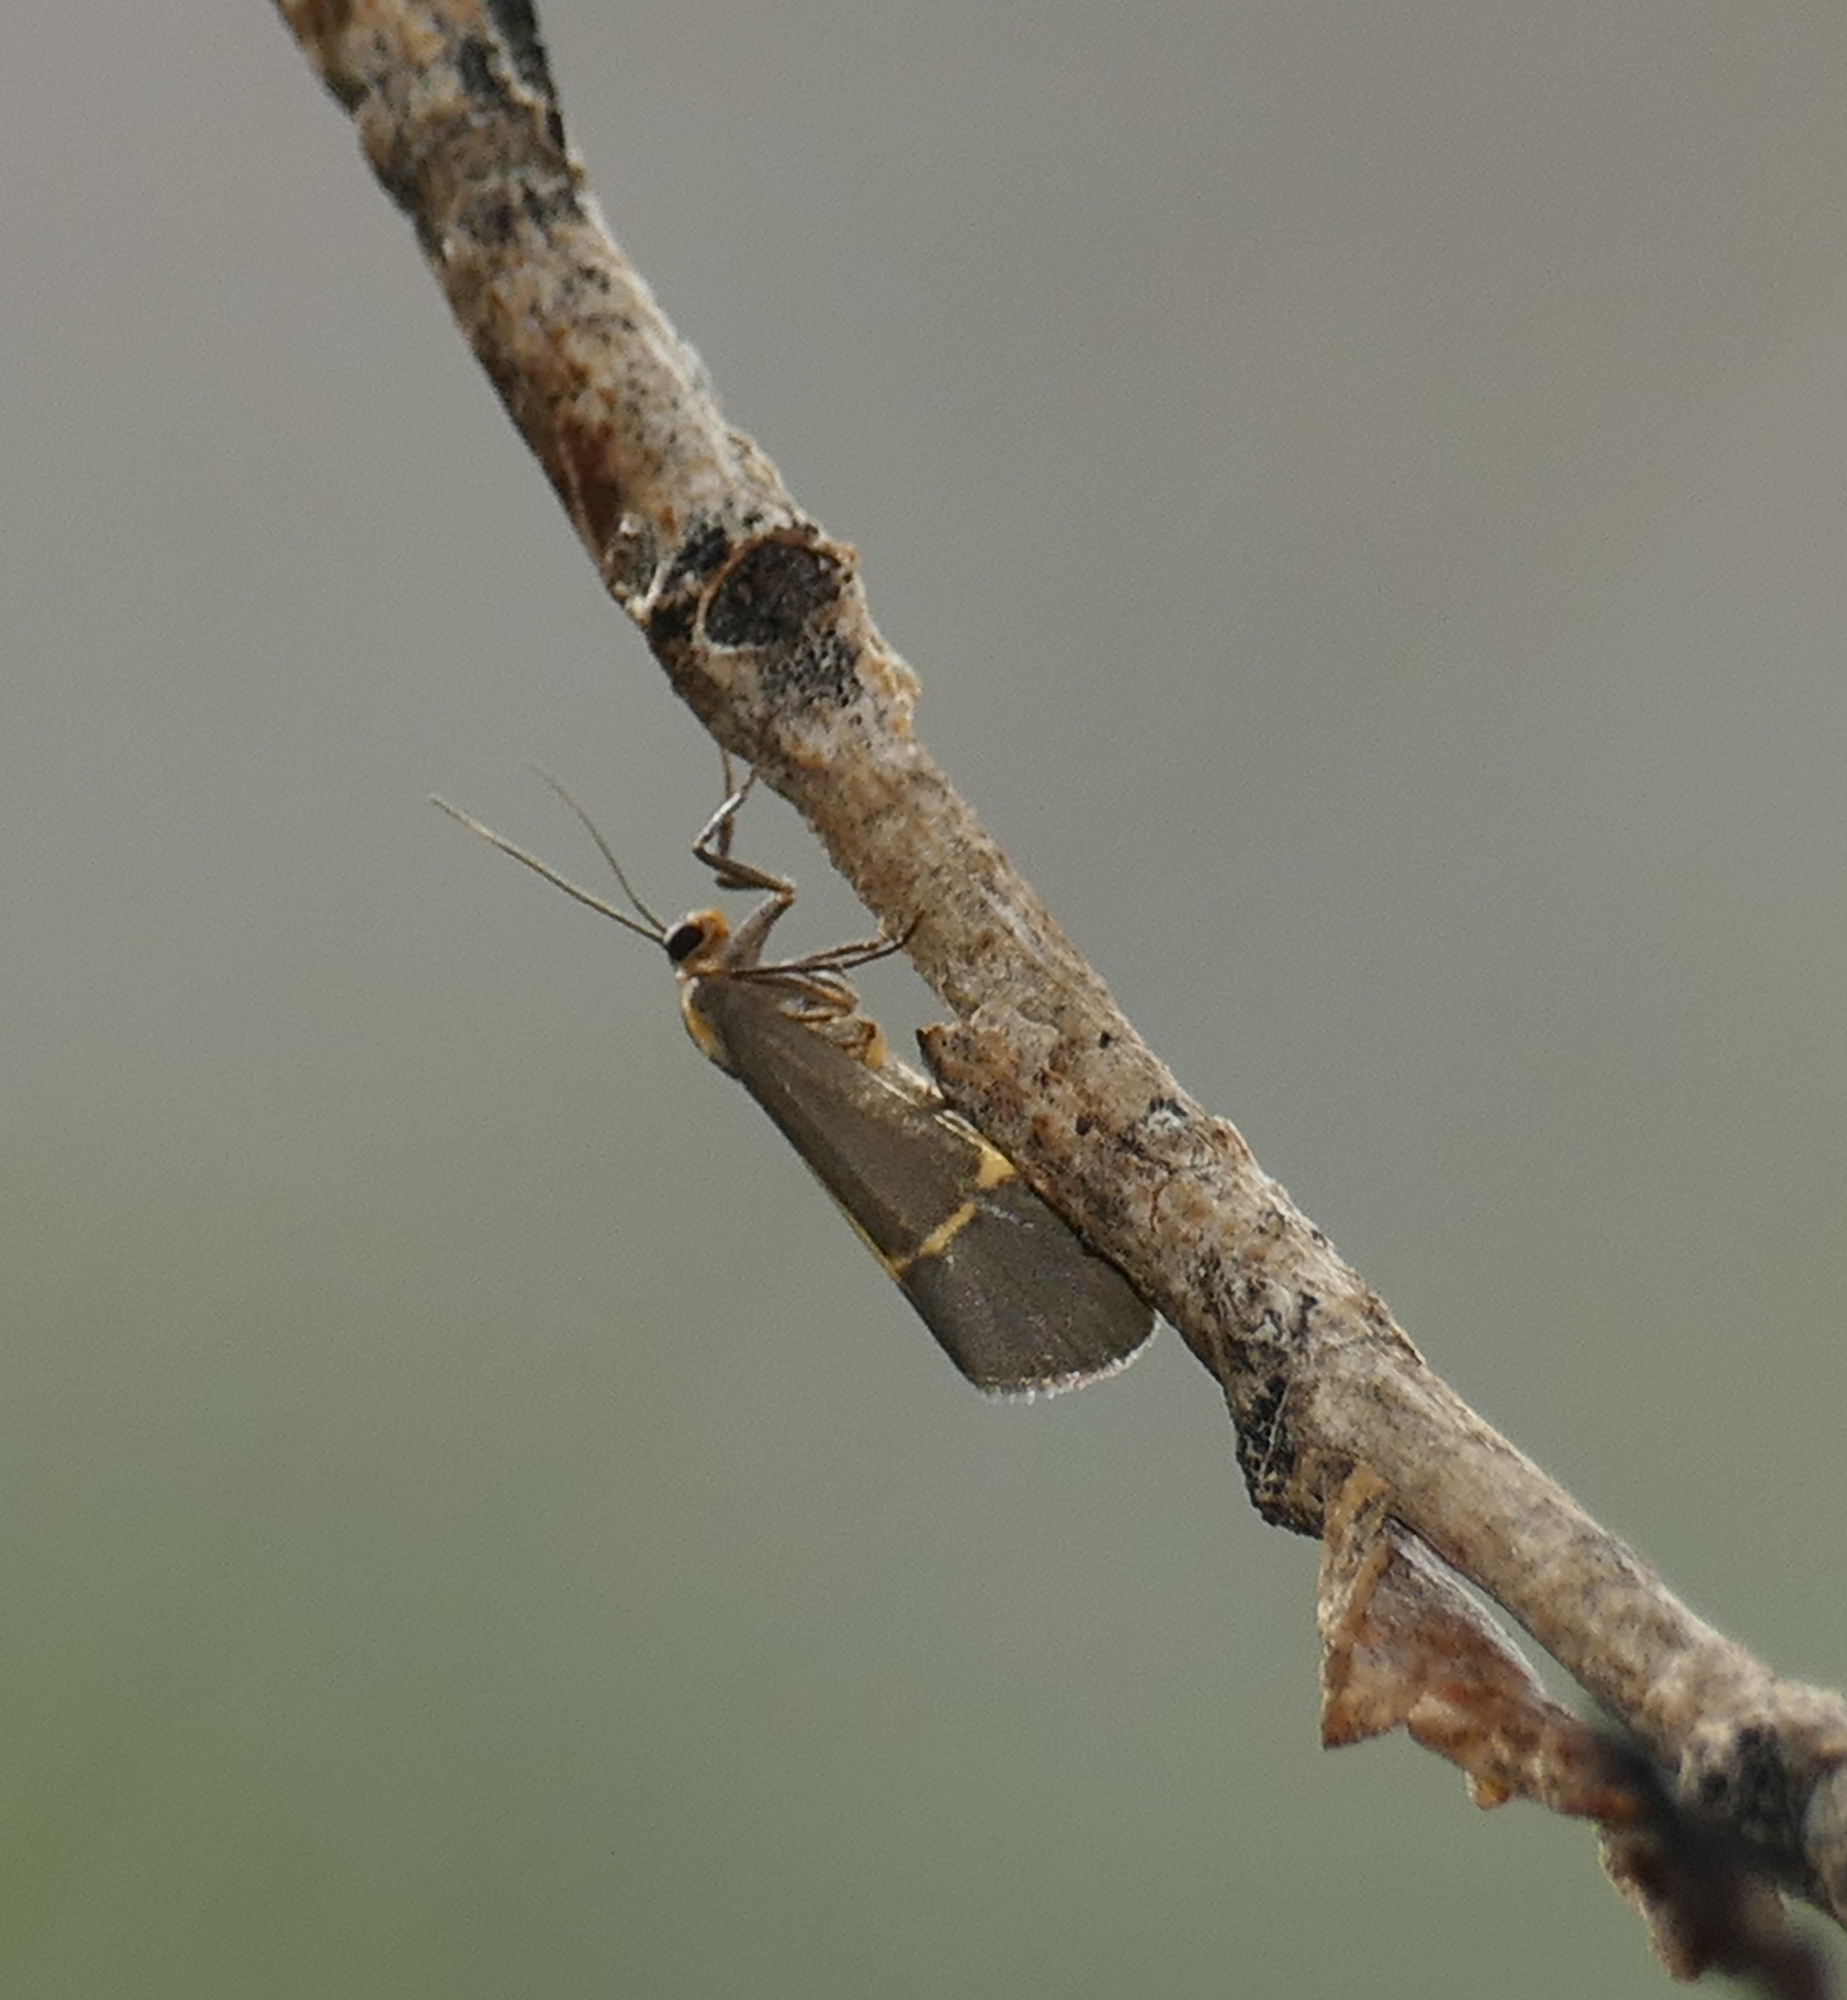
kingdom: Animalia
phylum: Arthropoda
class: Insecta
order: Lepidoptera
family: Erebidae
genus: Cisthene
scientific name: Cisthene barnesii
